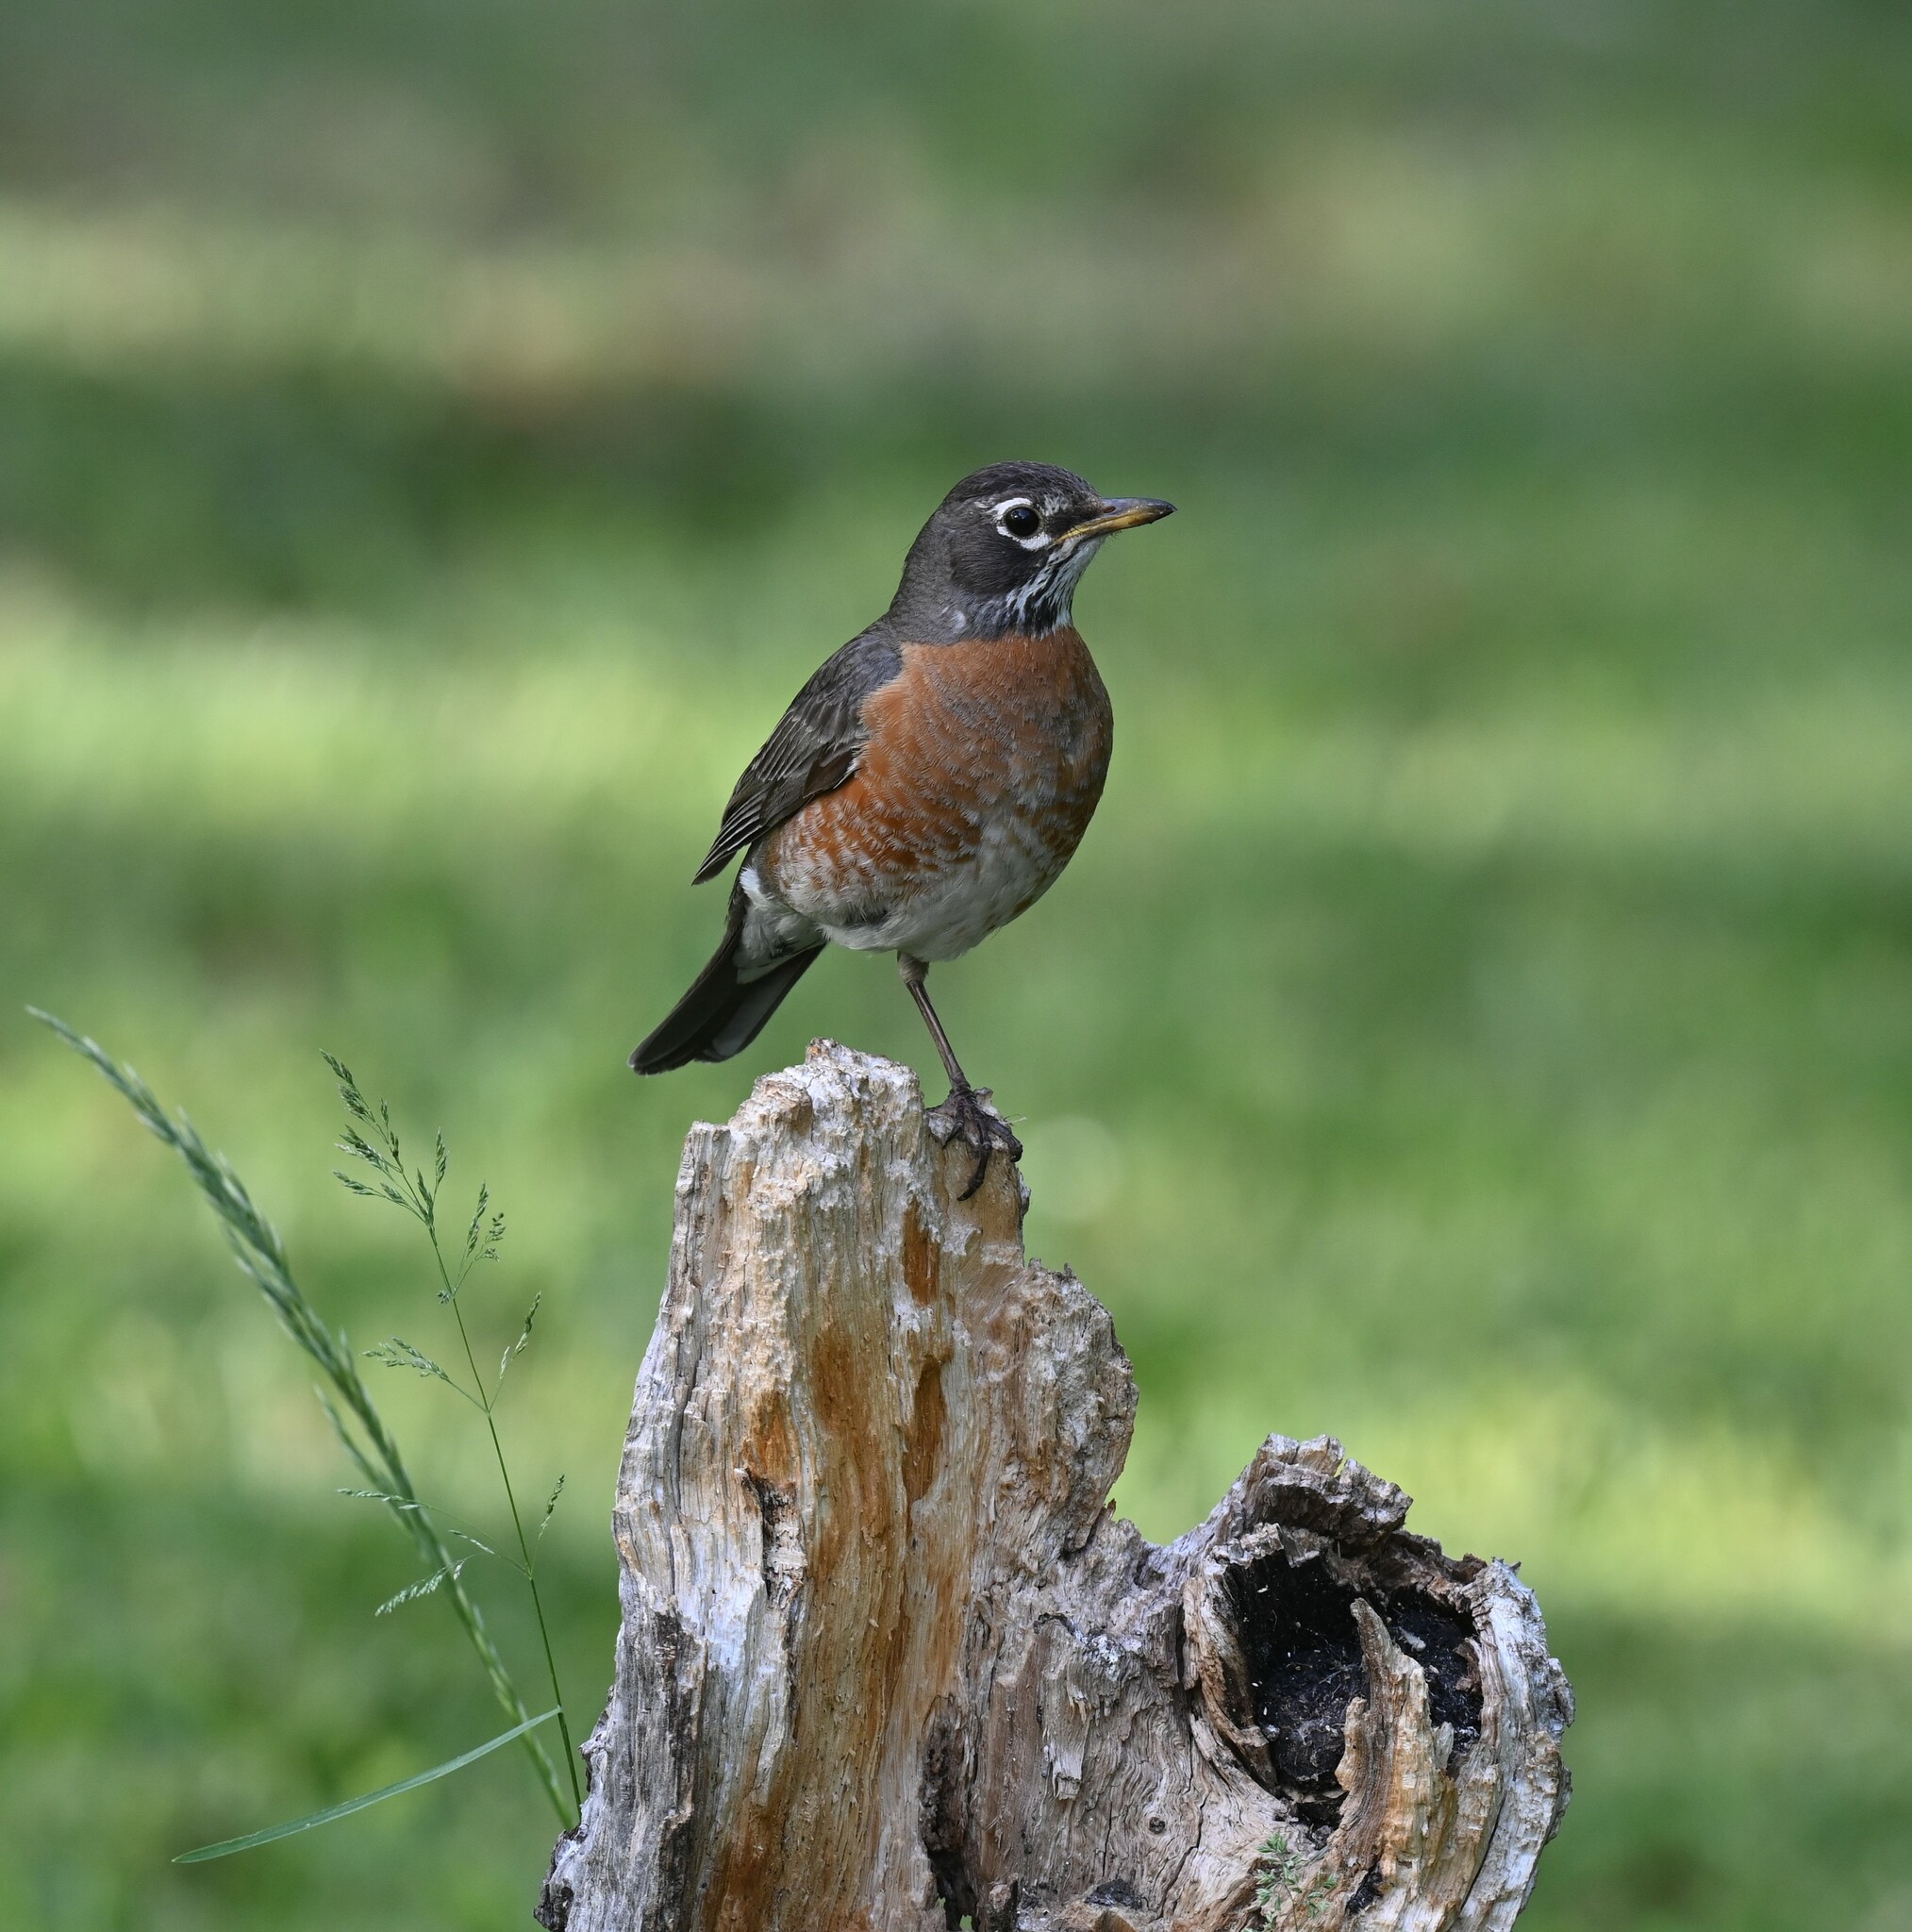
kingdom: Animalia
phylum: Chordata
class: Aves
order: Passeriformes
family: Turdidae
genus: Turdus
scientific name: Turdus migratorius
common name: American robin
